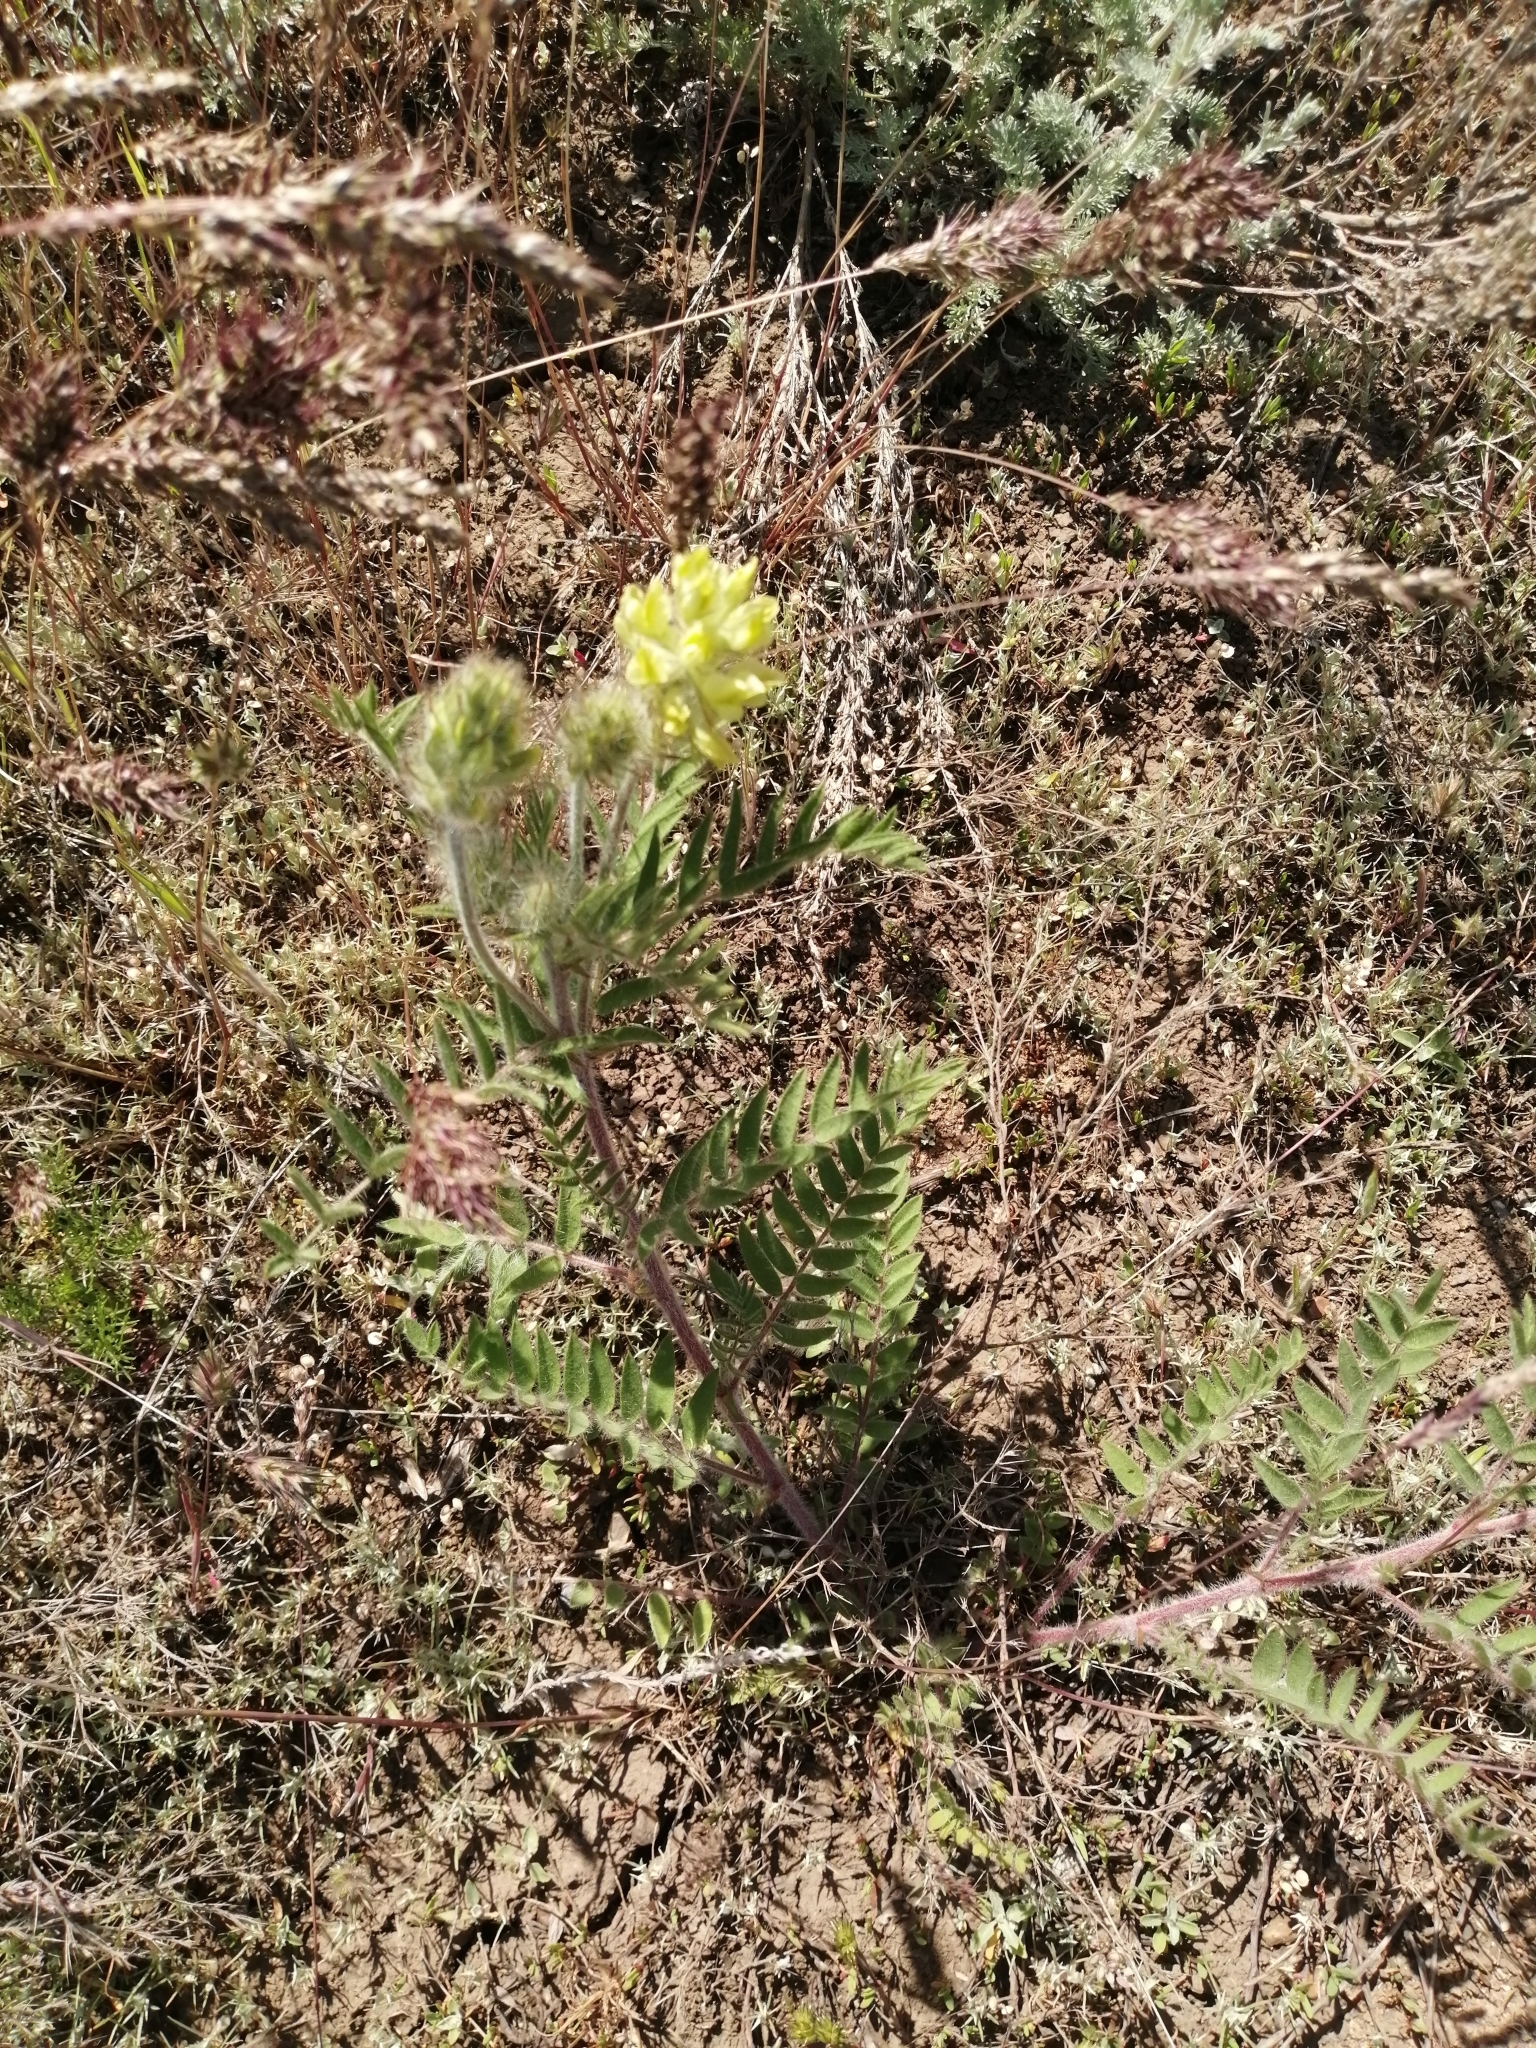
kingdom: Plantae
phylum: Tracheophyta
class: Magnoliopsida
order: Fabales
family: Fabaceae
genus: Oxytropis
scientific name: Oxytropis pilosa
